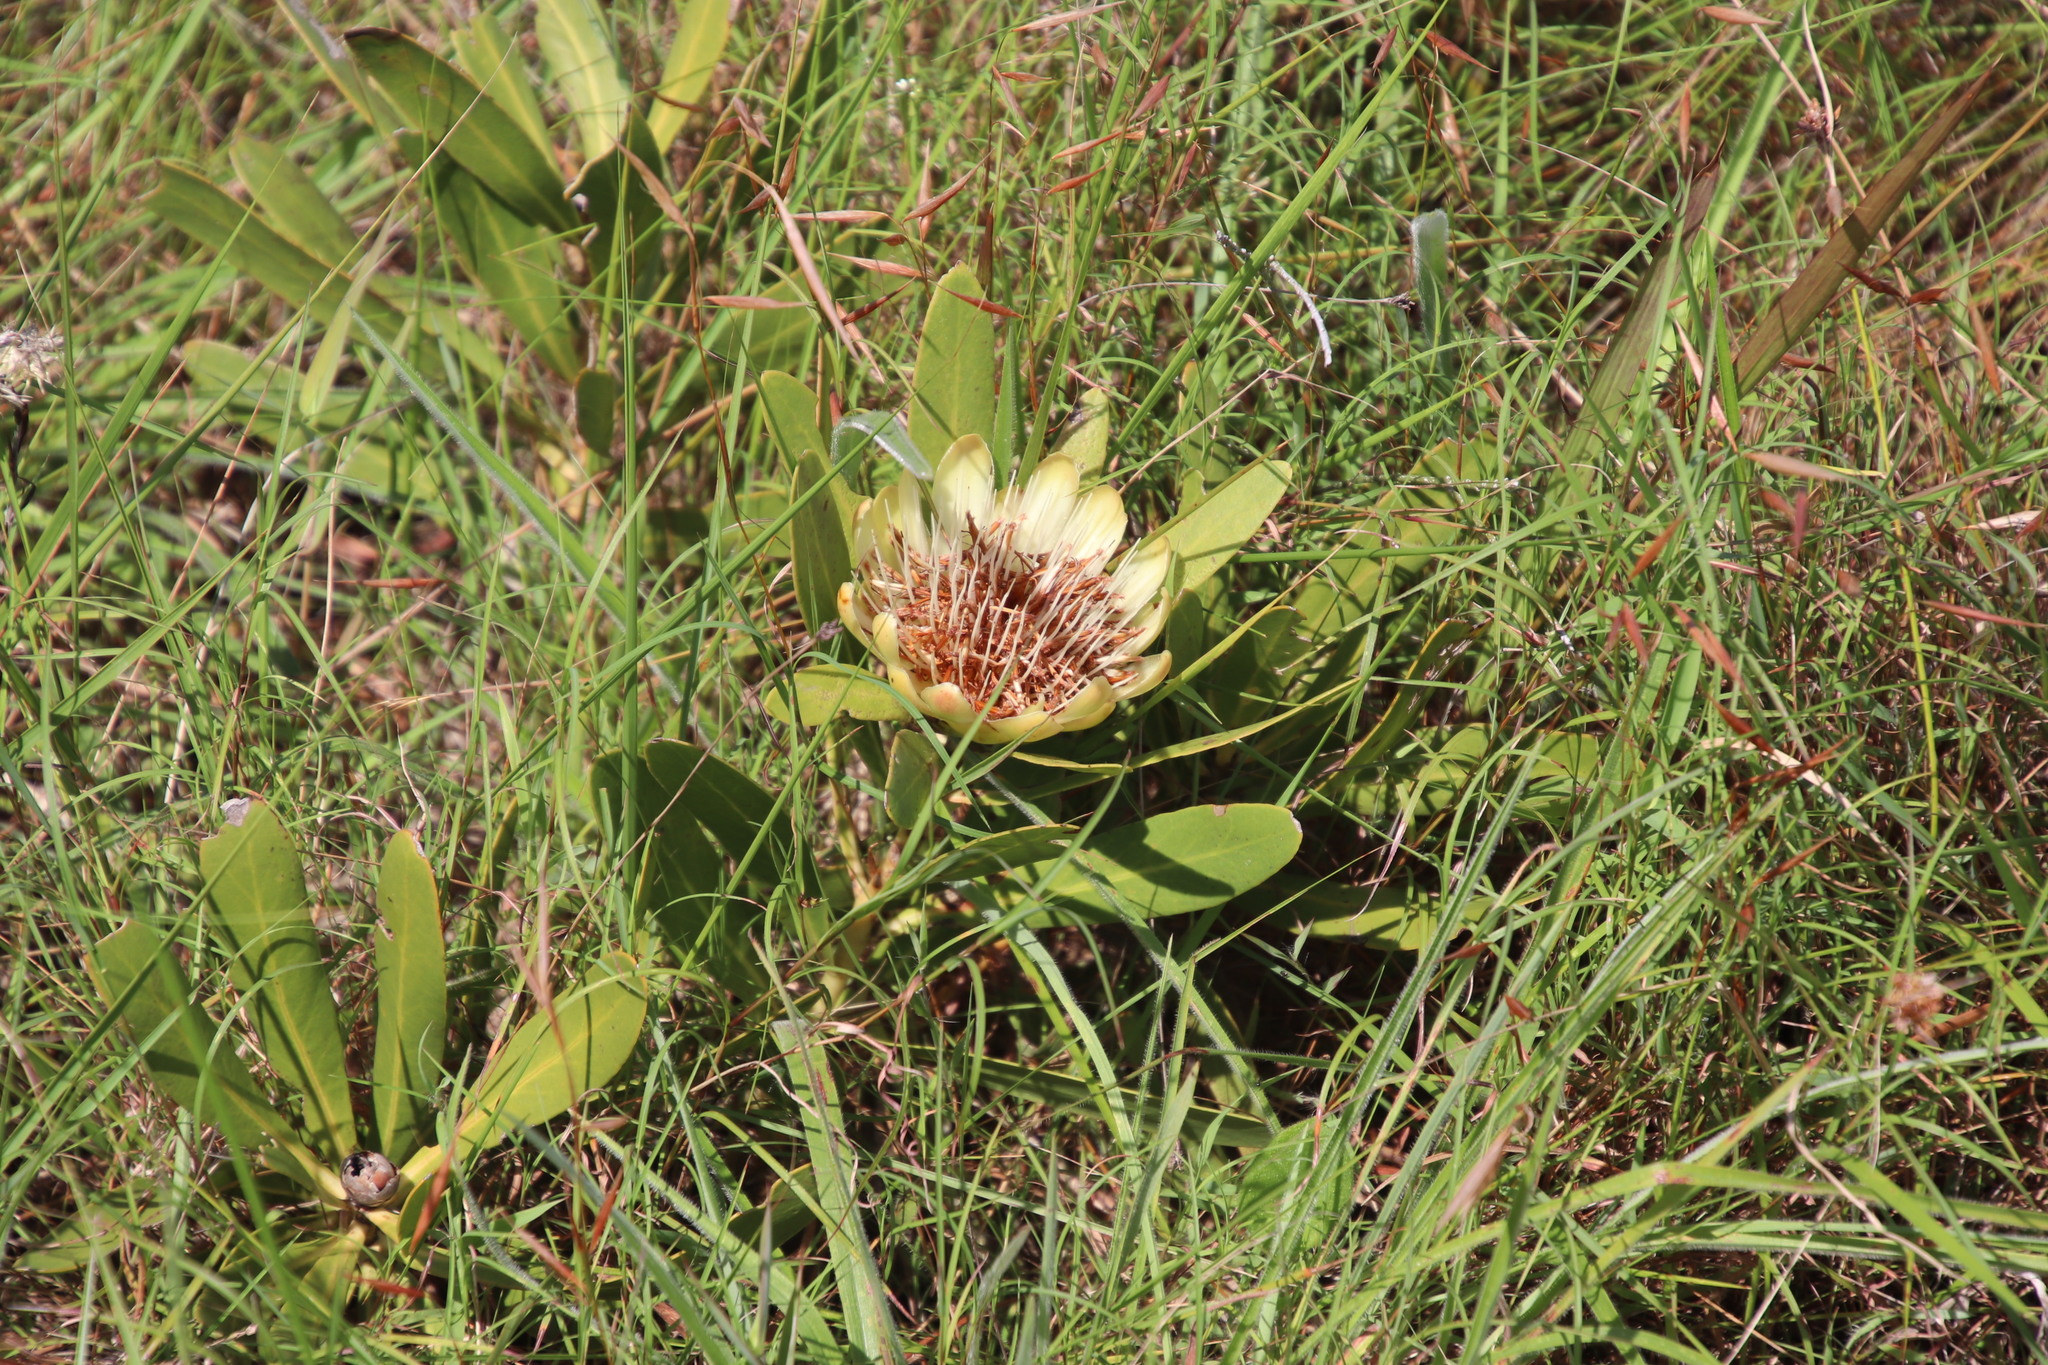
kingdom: Plantae
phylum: Tracheophyta
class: Magnoliopsida
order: Proteales
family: Proteaceae
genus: Protea
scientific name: Protea simplex
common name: Dwarf grassveld sugarbush
